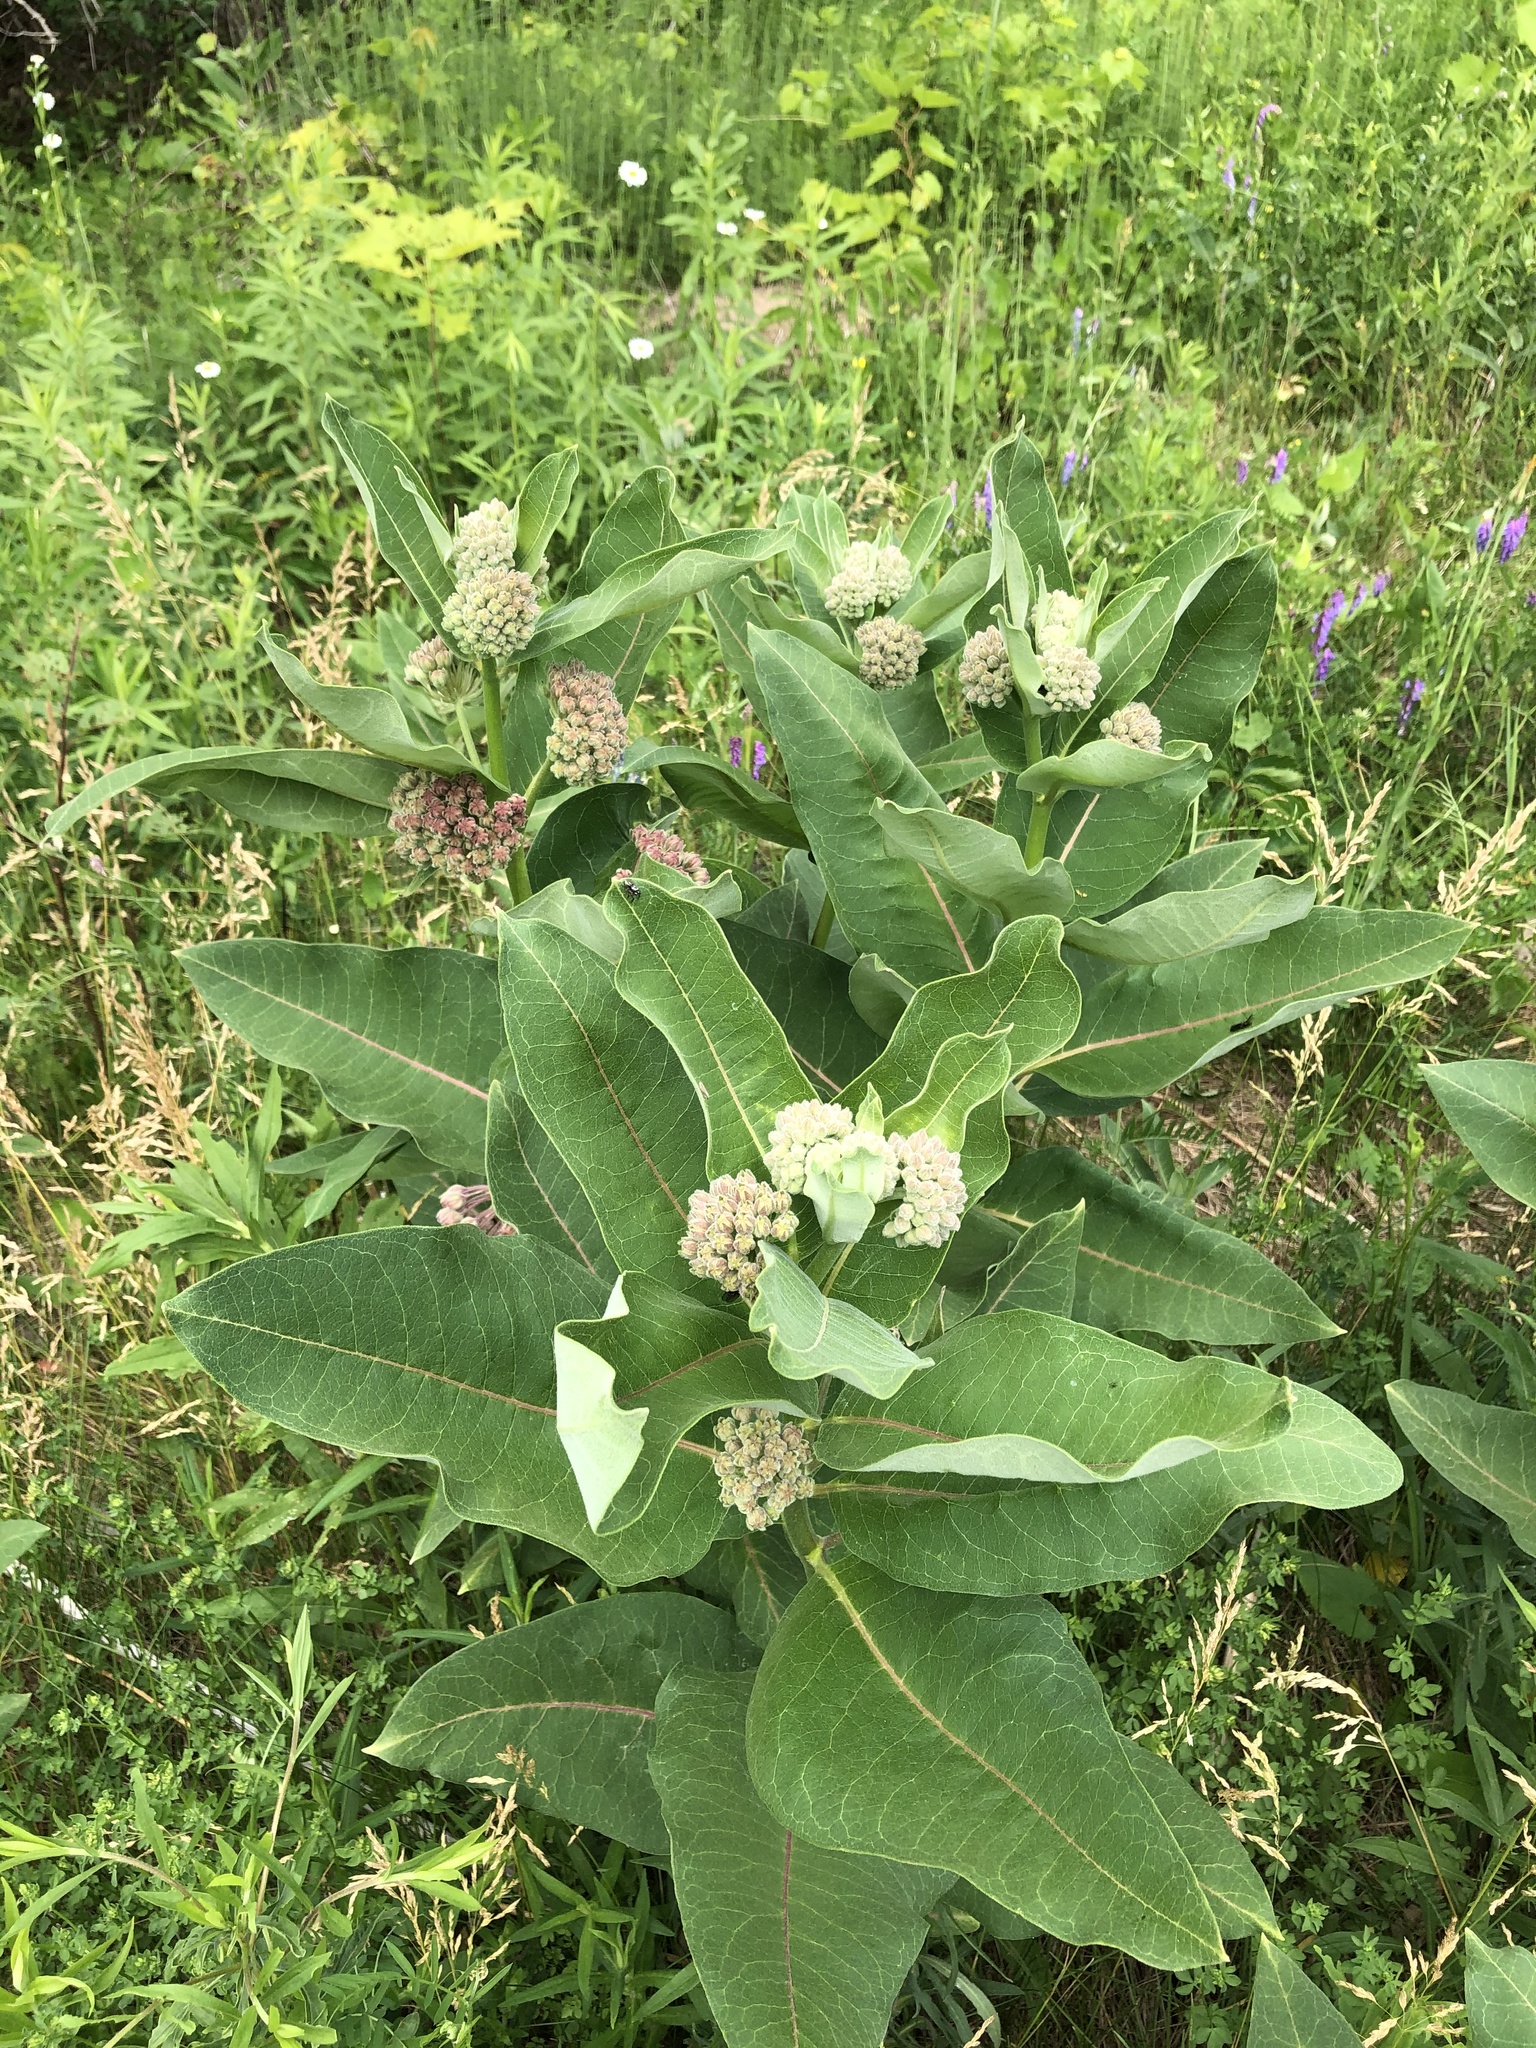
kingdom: Plantae
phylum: Tracheophyta
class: Magnoliopsida
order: Gentianales
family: Apocynaceae
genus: Asclepias
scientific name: Asclepias syriaca
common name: Common milkweed
